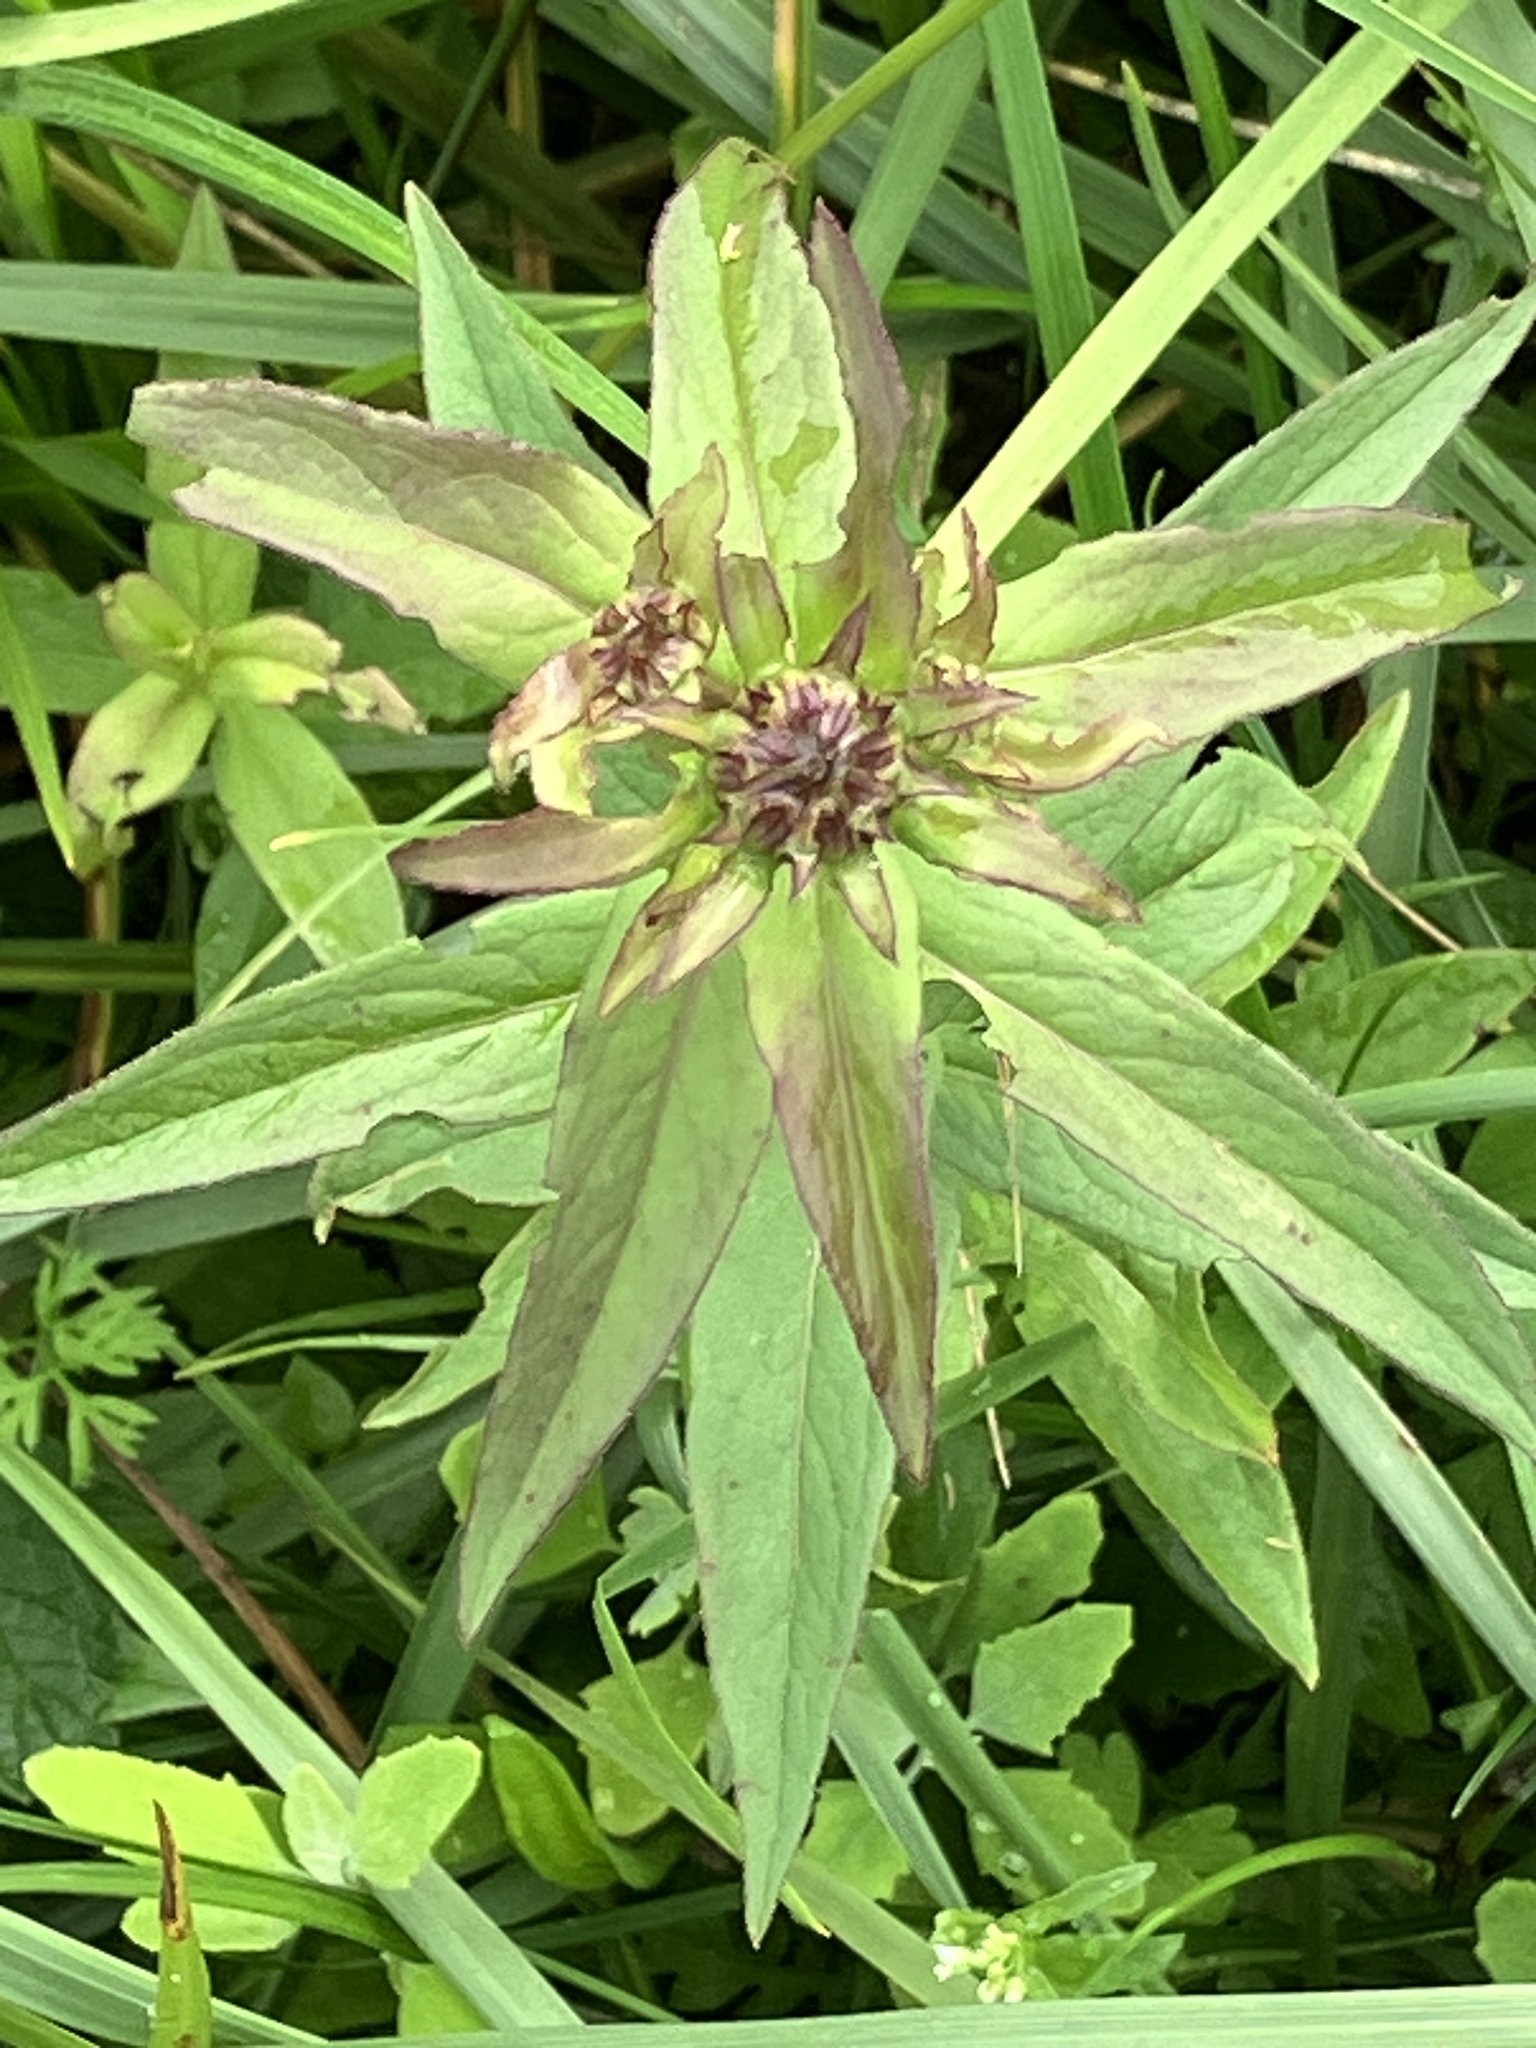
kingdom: Plantae
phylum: Tracheophyta
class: Magnoliopsida
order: Asterales
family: Asteraceae
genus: Pentanema
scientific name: Pentanema salicinum
